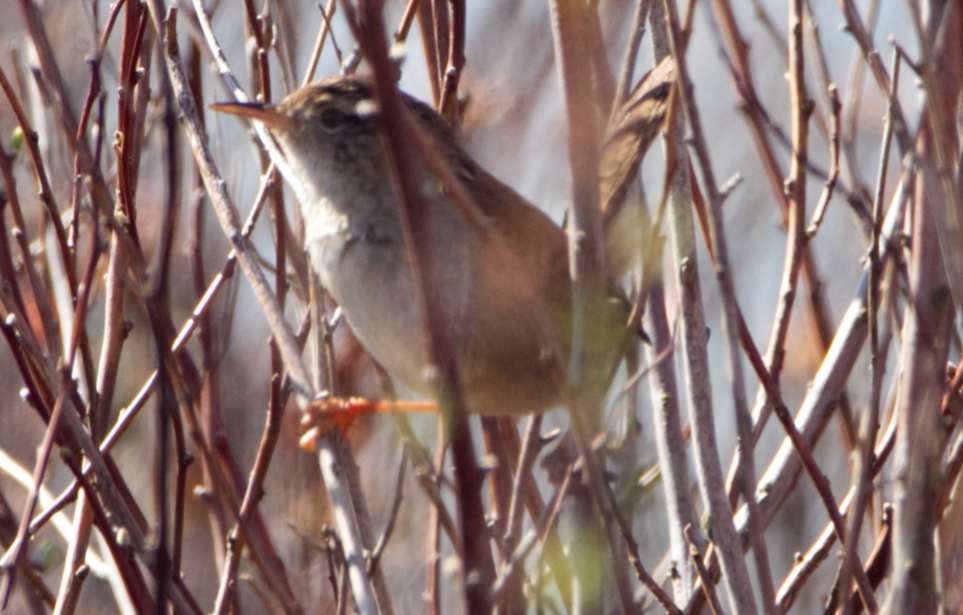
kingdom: Animalia
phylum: Chordata
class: Aves
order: Passeriformes
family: Troglodytidae
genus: Cistothorus
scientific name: Cistothorus palustris
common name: Marsh wren
